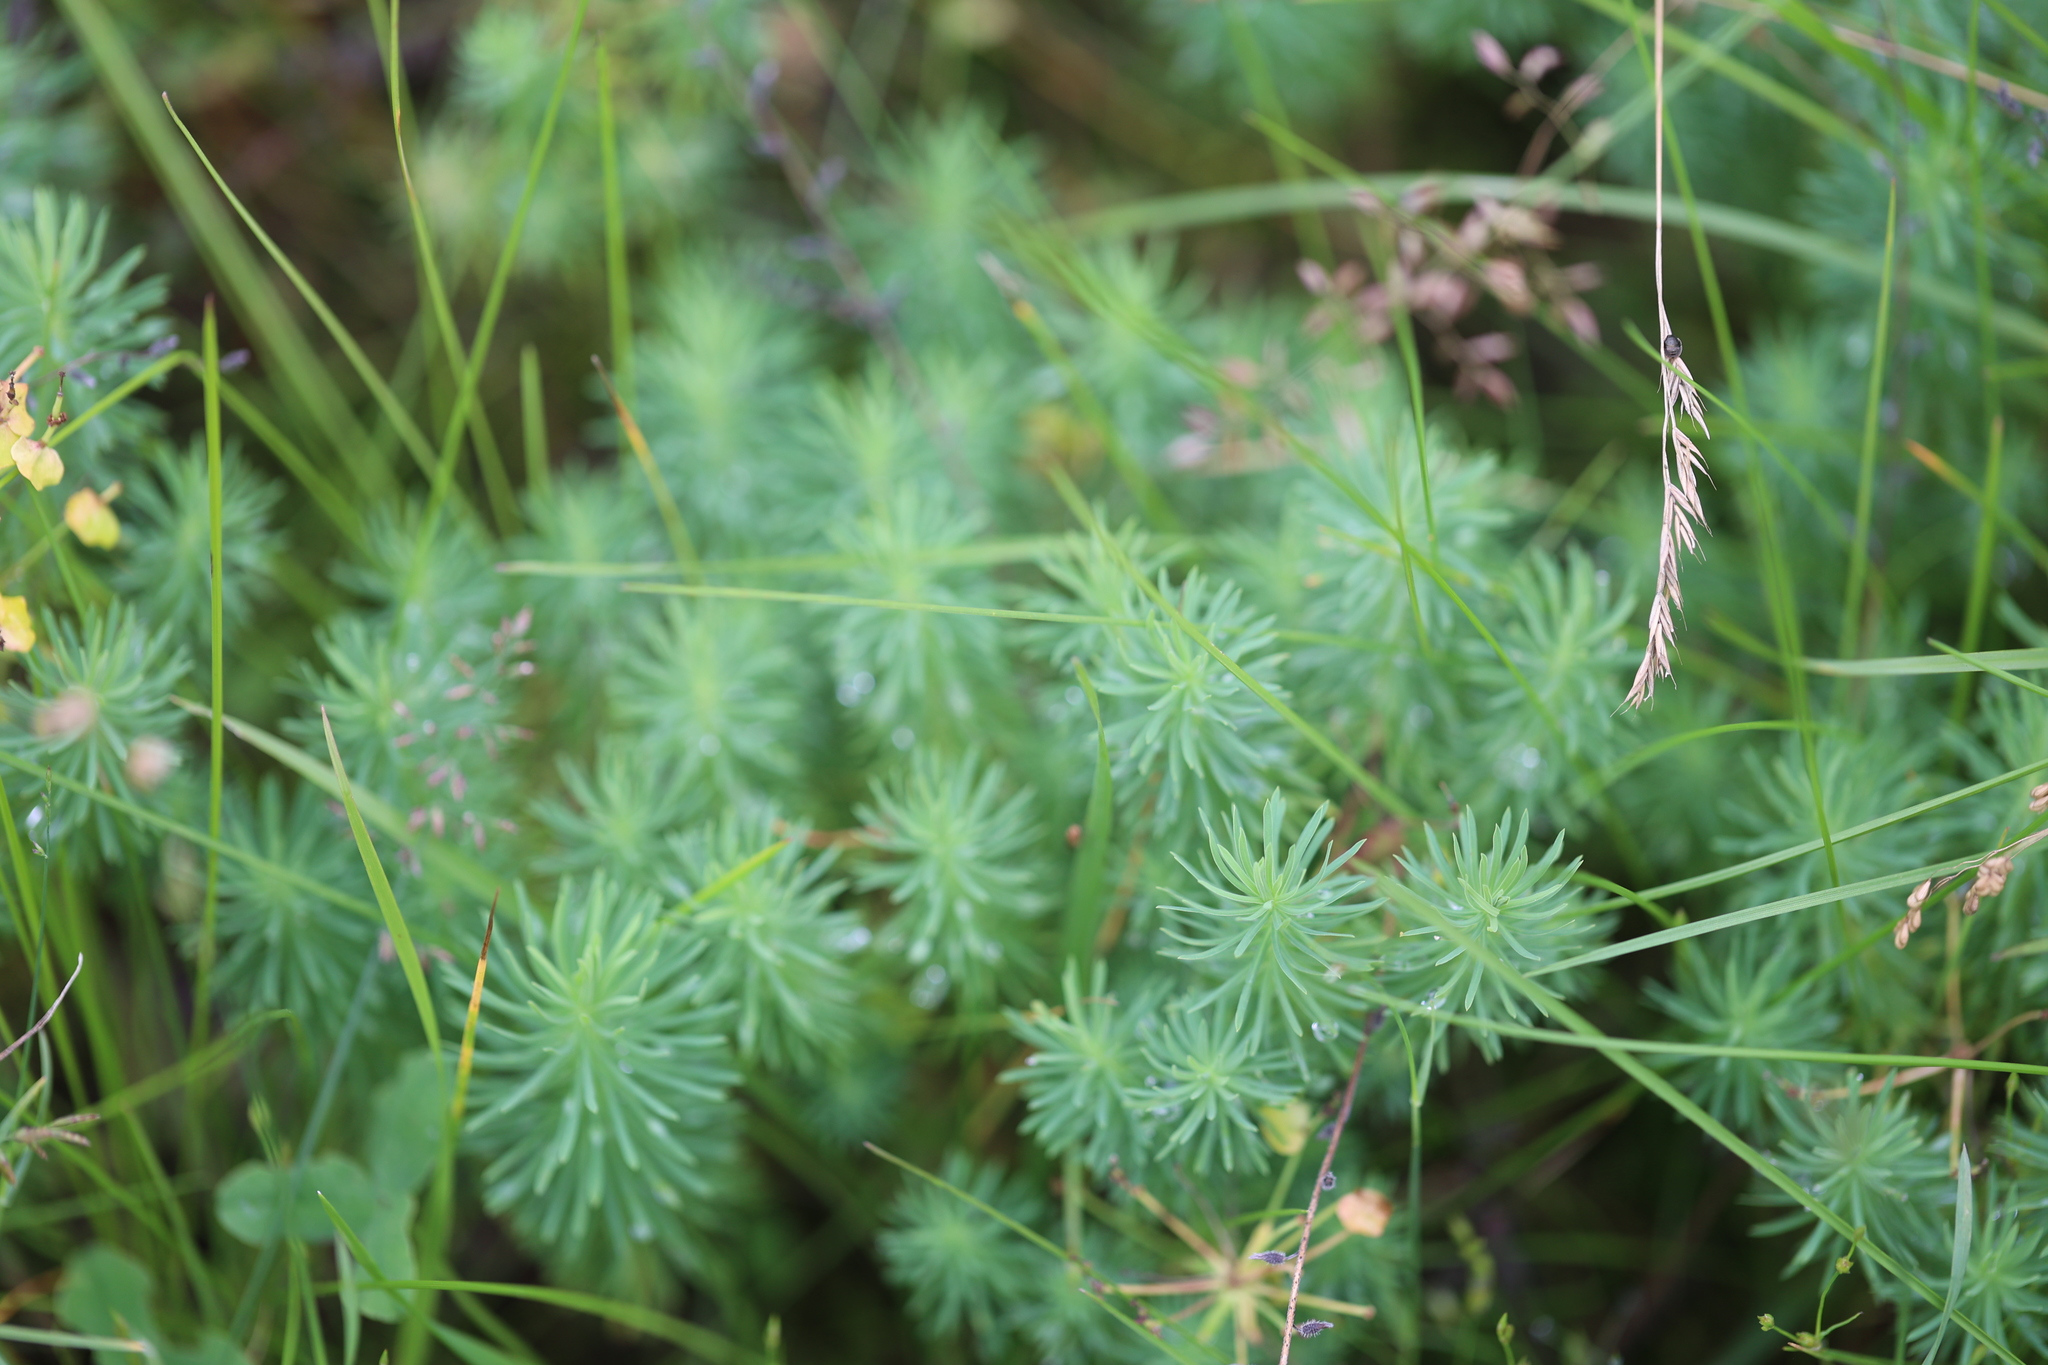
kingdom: Plantae
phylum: Tracheophyta
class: Magnoliopsida
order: Malpighiales
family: Euphorbiaceae
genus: Euphorbia
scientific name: Euphorbia cyparissias
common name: Cypress spurge
